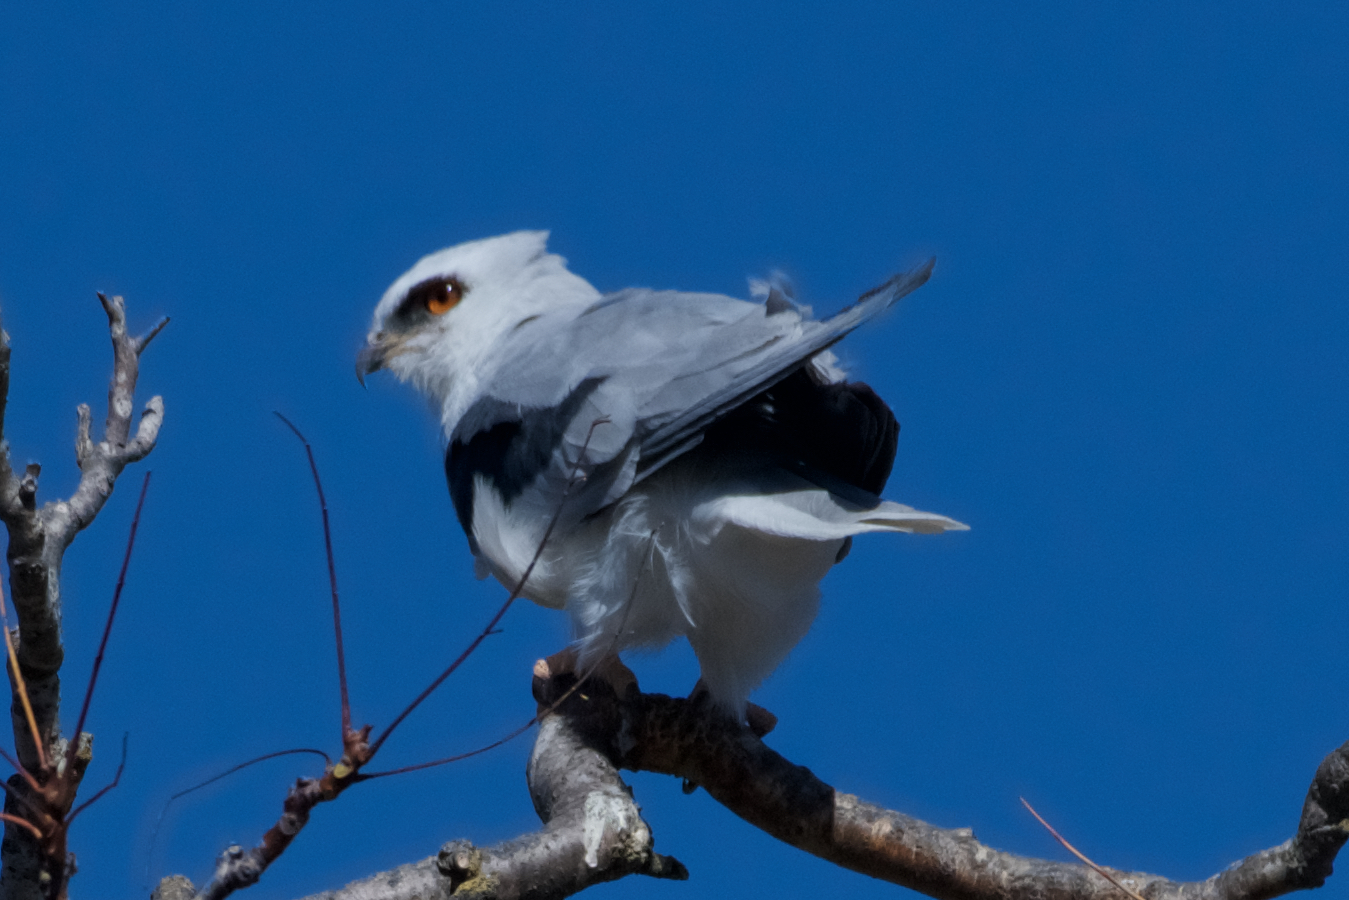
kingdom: Animalia
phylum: Chordata
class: Aves
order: Accipitriformes
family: Accipitridae
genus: Elanus
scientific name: Elanus leucurus
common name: White-tailed kite
